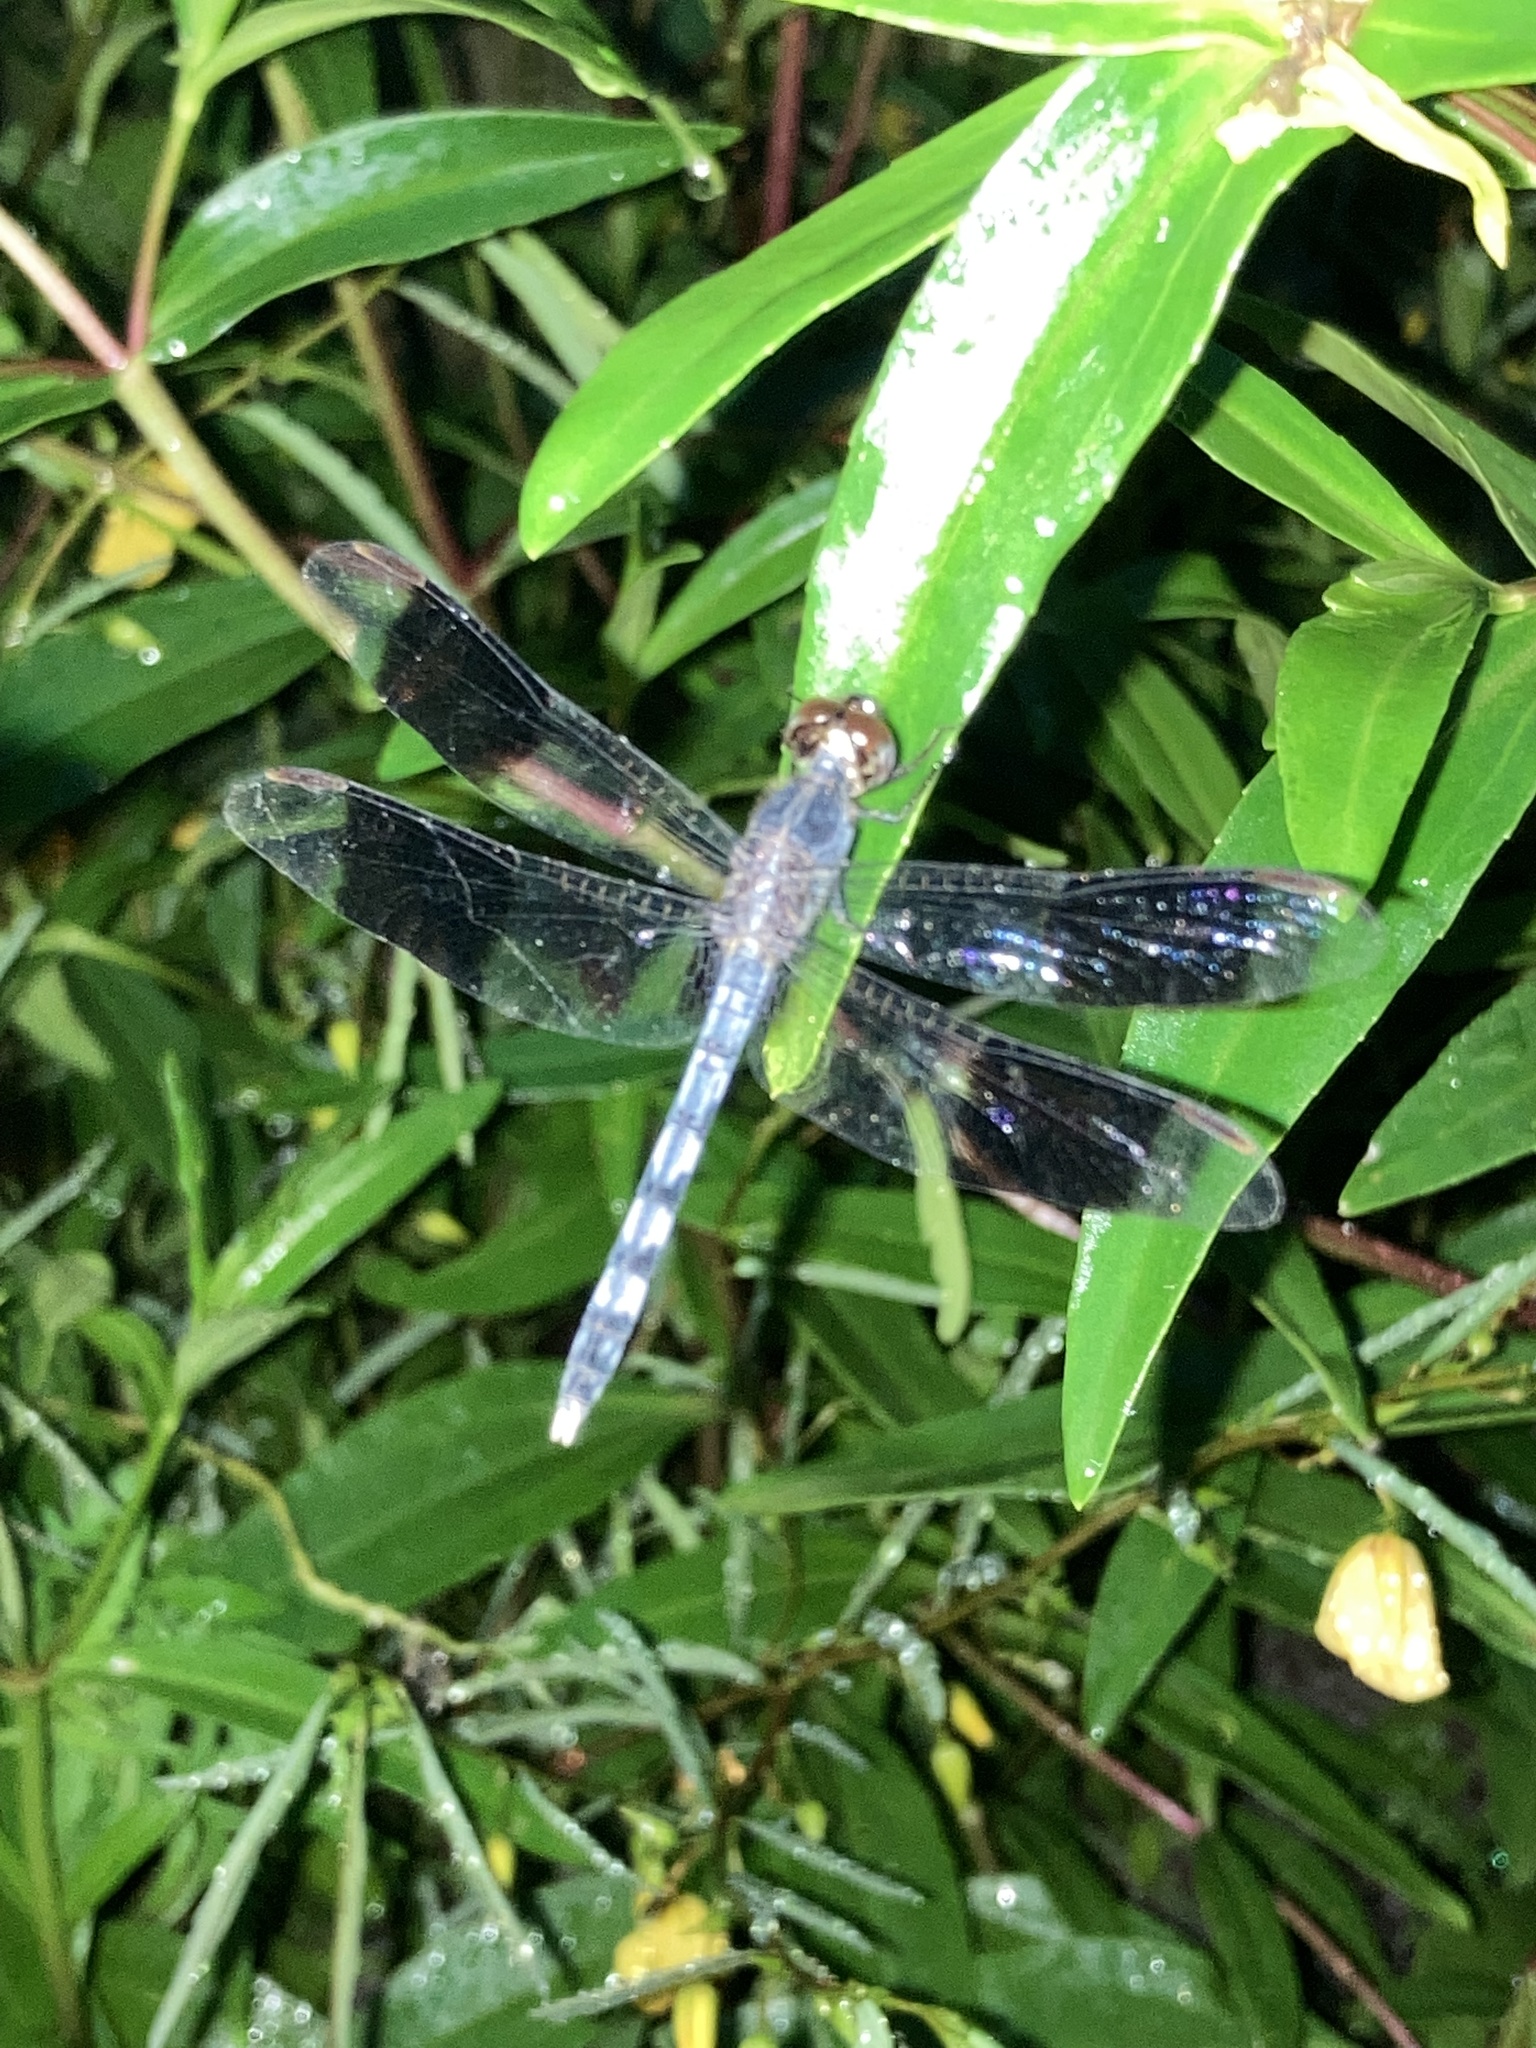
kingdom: Animalia
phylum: Arthropoda
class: Insecta
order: Odonata
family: Libellulidae
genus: Erythrodiplax
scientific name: Erythrodiplax umbrata
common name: Band-winged dragonlet
